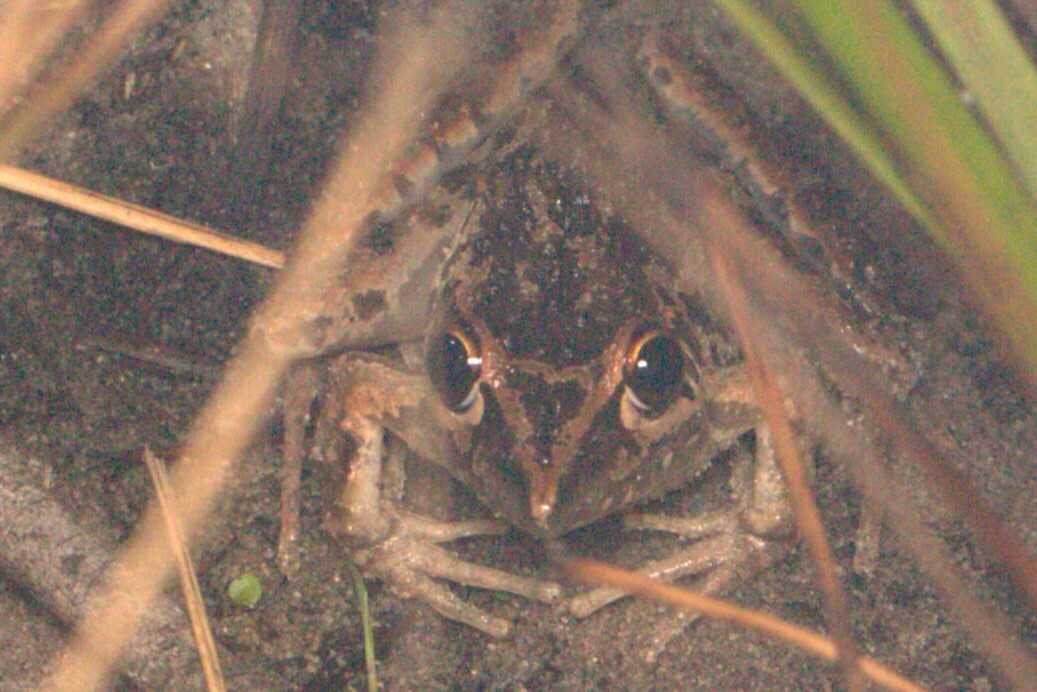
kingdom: Animalia
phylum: Chordata
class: Amphibia
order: Anura
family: Pelodryadidae
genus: Litoria
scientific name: Litoria freycineti
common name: Freycinet’s frog
